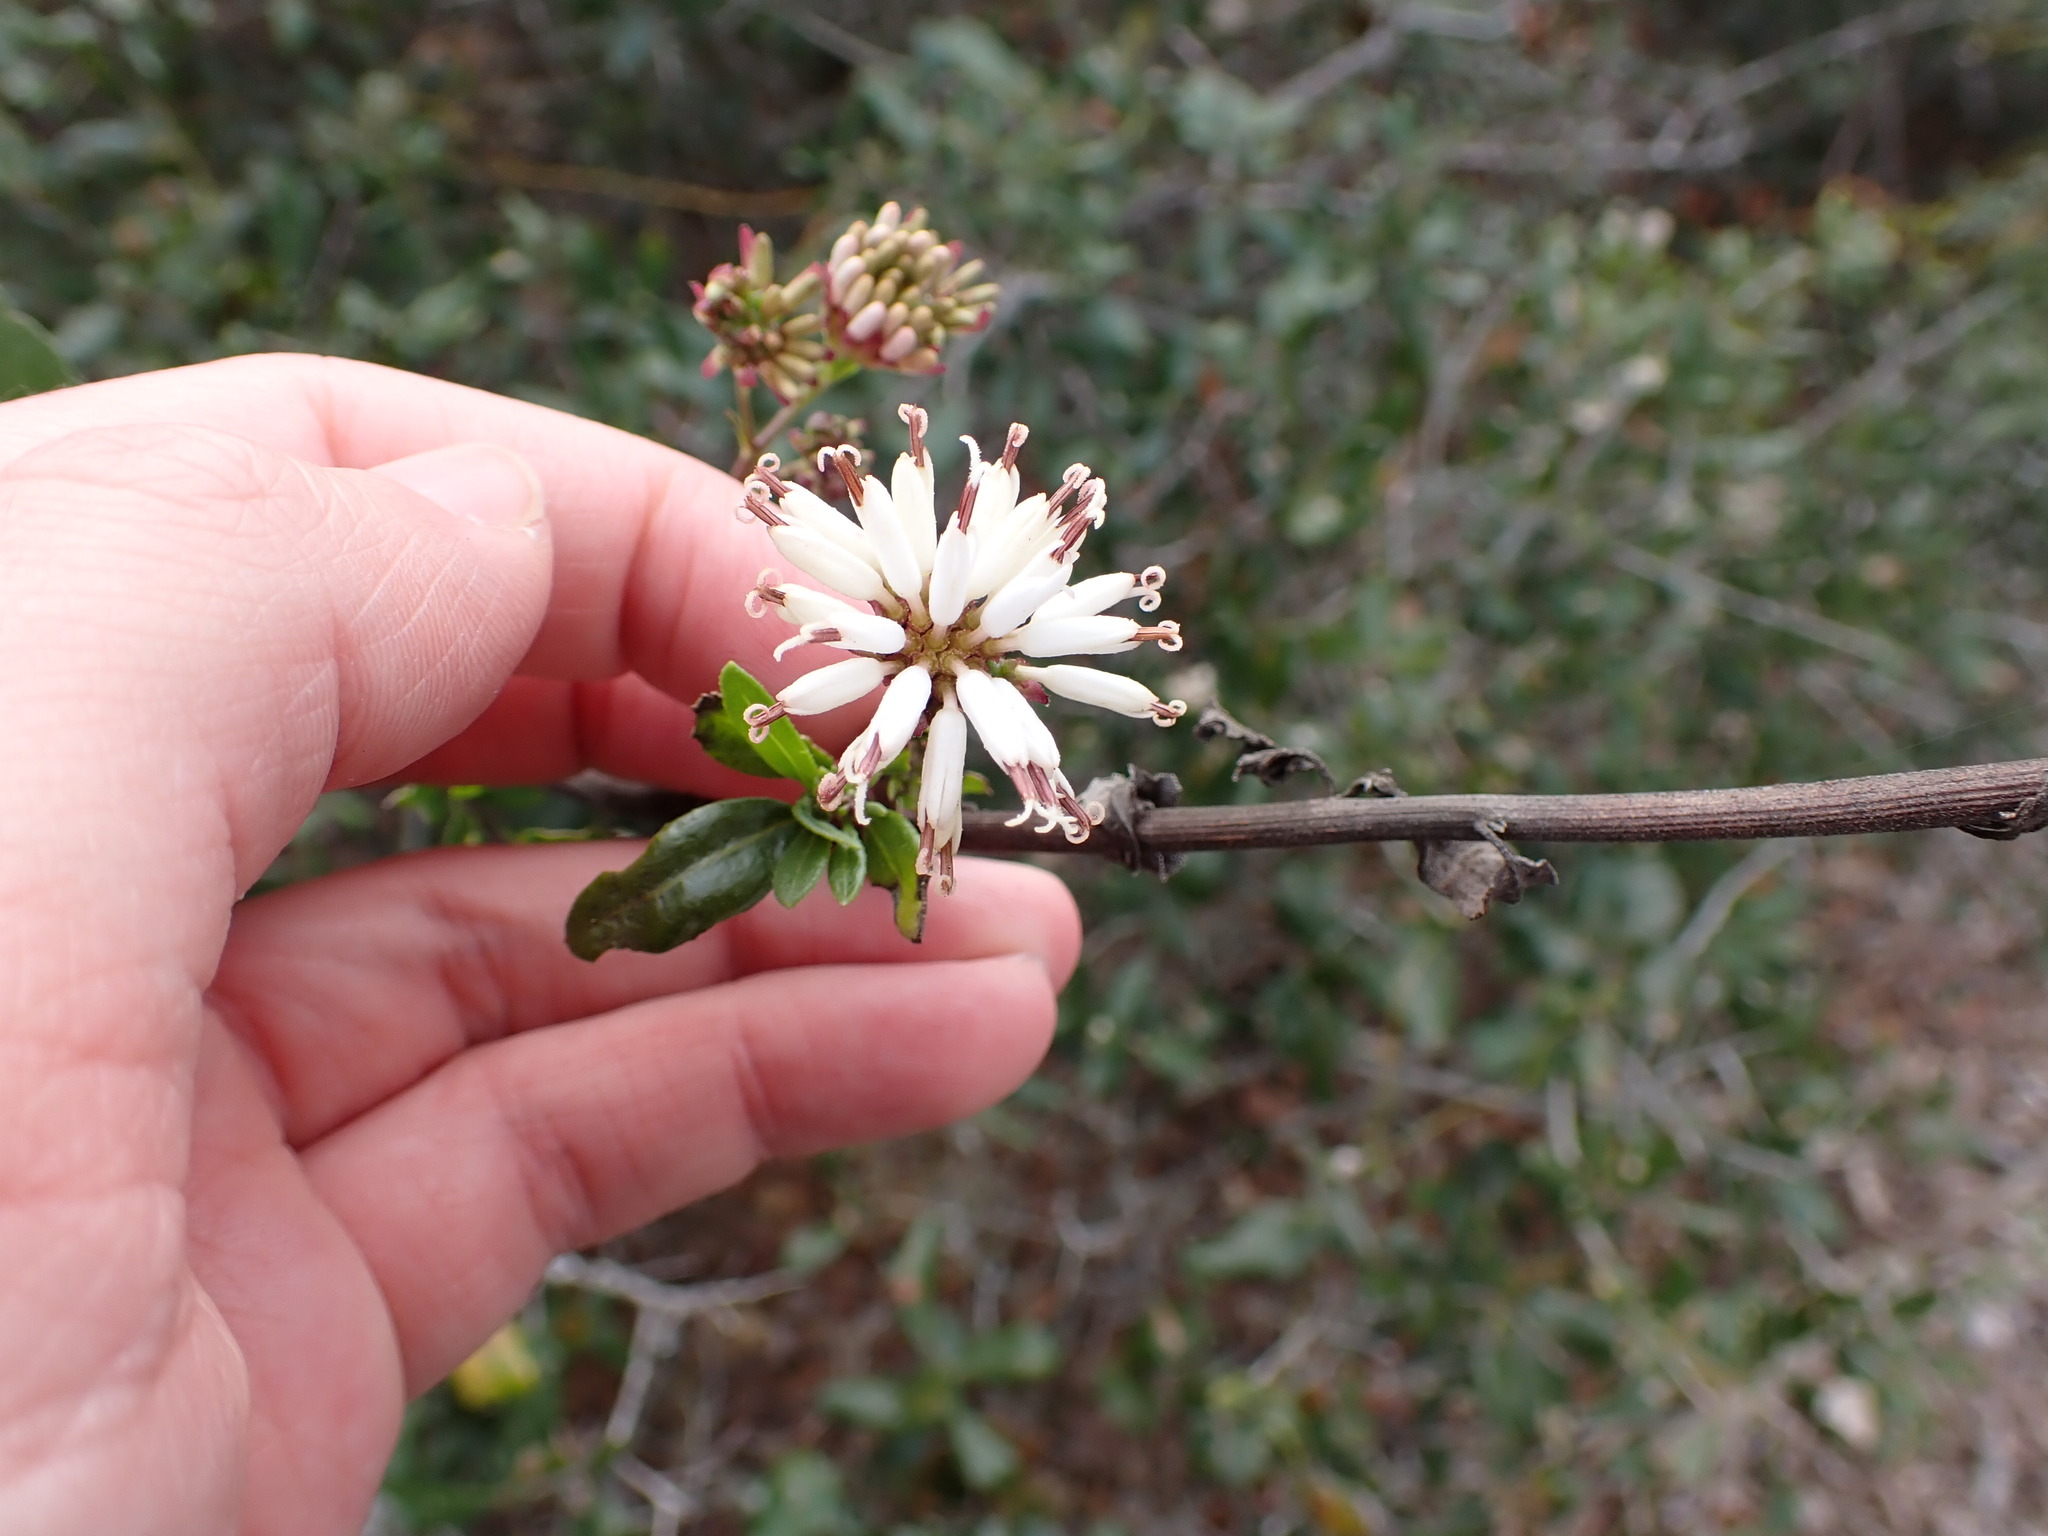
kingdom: Plantae
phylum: Tracheophyta
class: Magnoliopsida
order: Asterales
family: Asteraceae
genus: Palafoxia
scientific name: Palafoxia feayi
